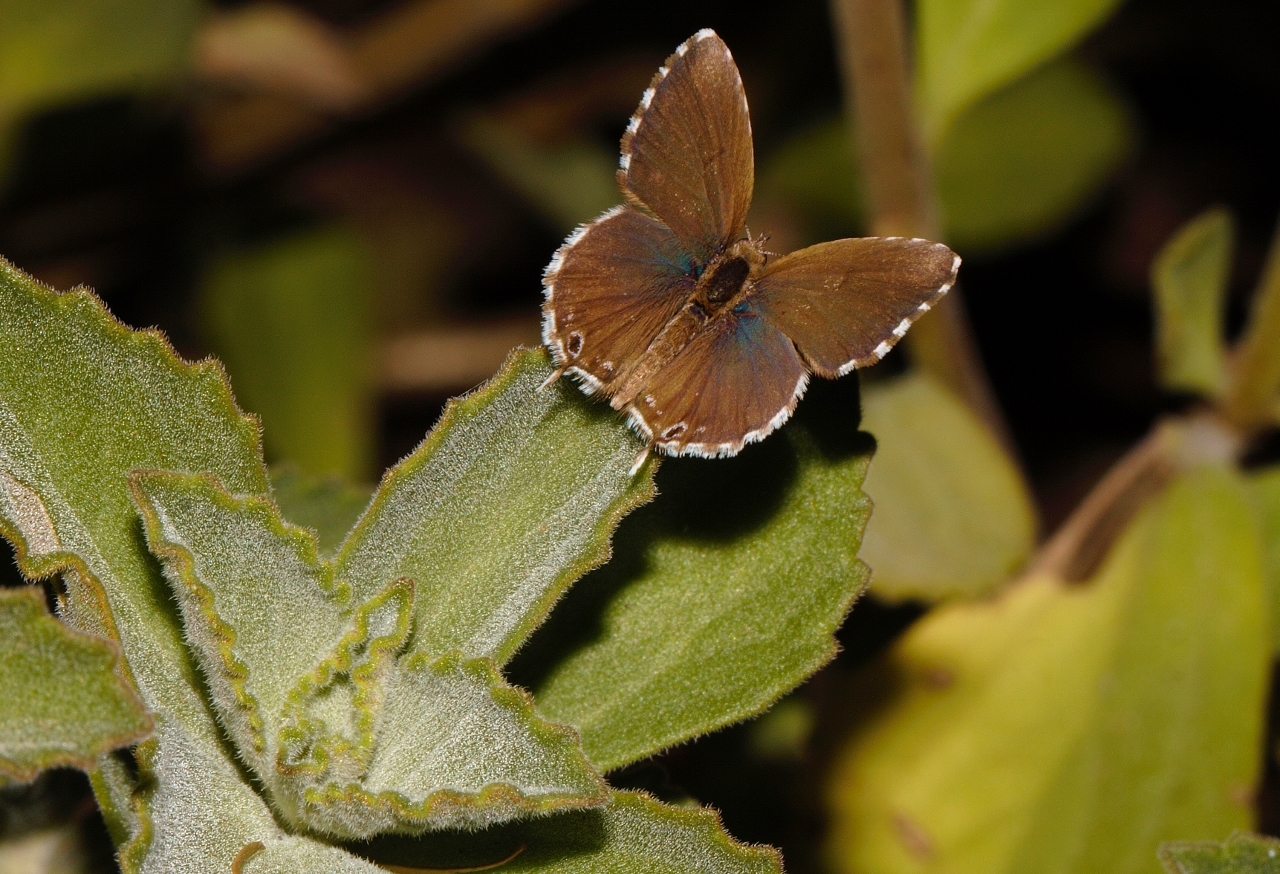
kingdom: Animalia
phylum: Arthropoda
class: Insecta
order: Lepidoptera
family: Lycaenidae
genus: Cacyreus
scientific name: Cacyreus marshalli
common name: Geranium bronze
